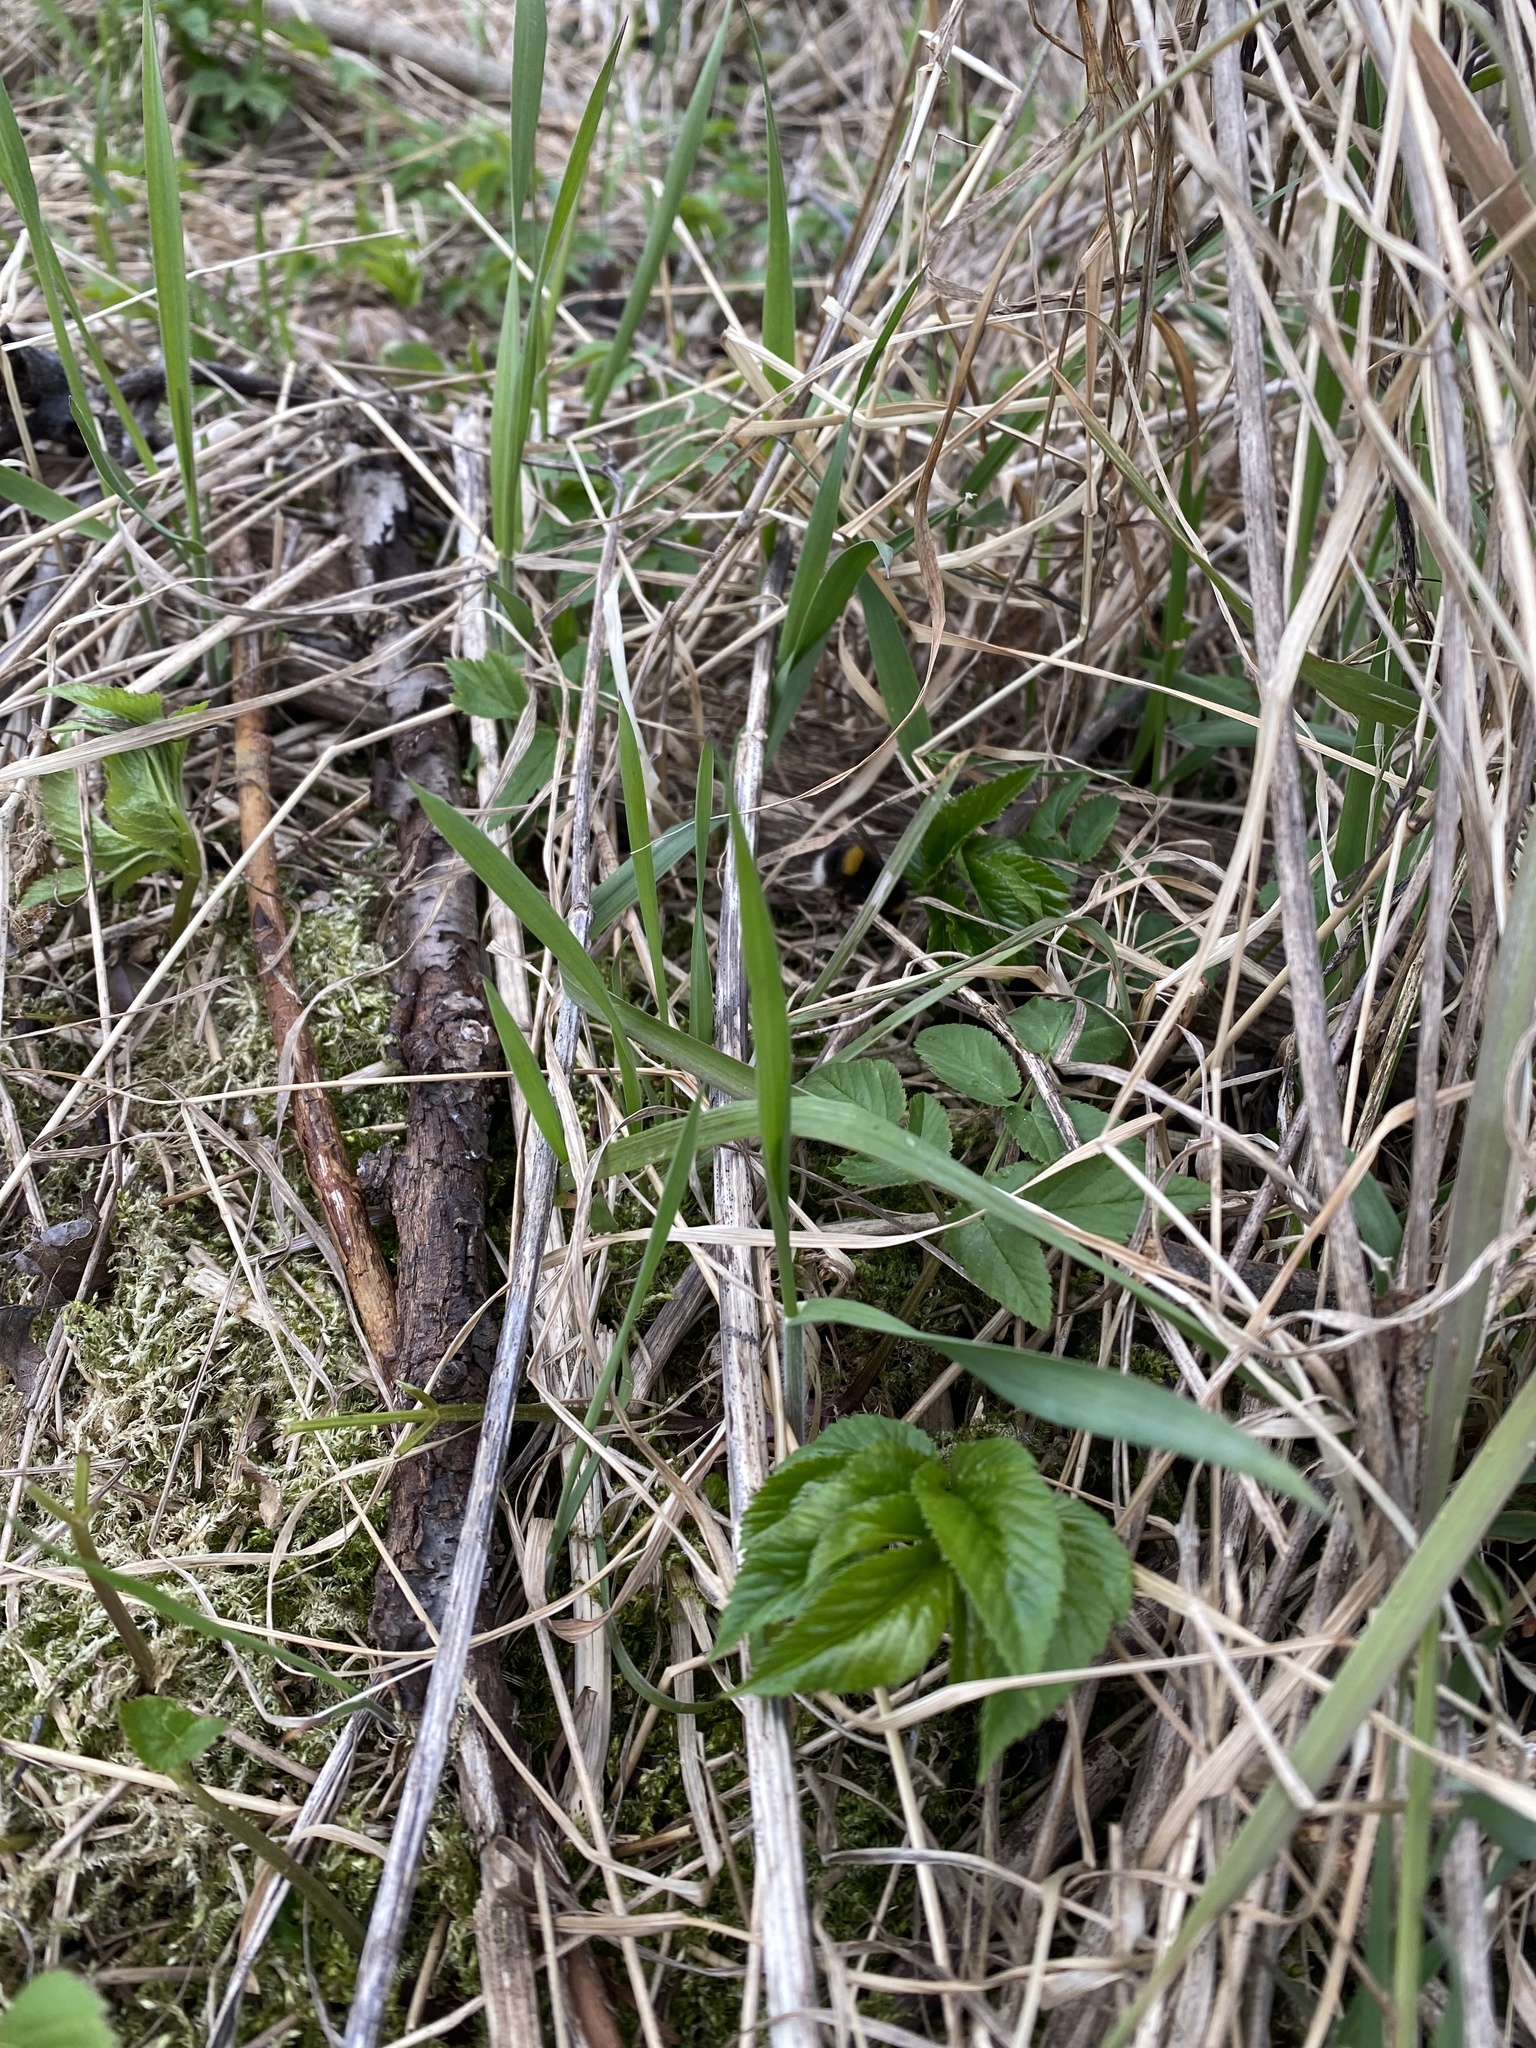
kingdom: Animalia
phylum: Arthropoda
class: Insecta
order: Hymenoptera
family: Apidae
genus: Bombus
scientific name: Bombus terrestris
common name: Buff-tailed bumblebee
